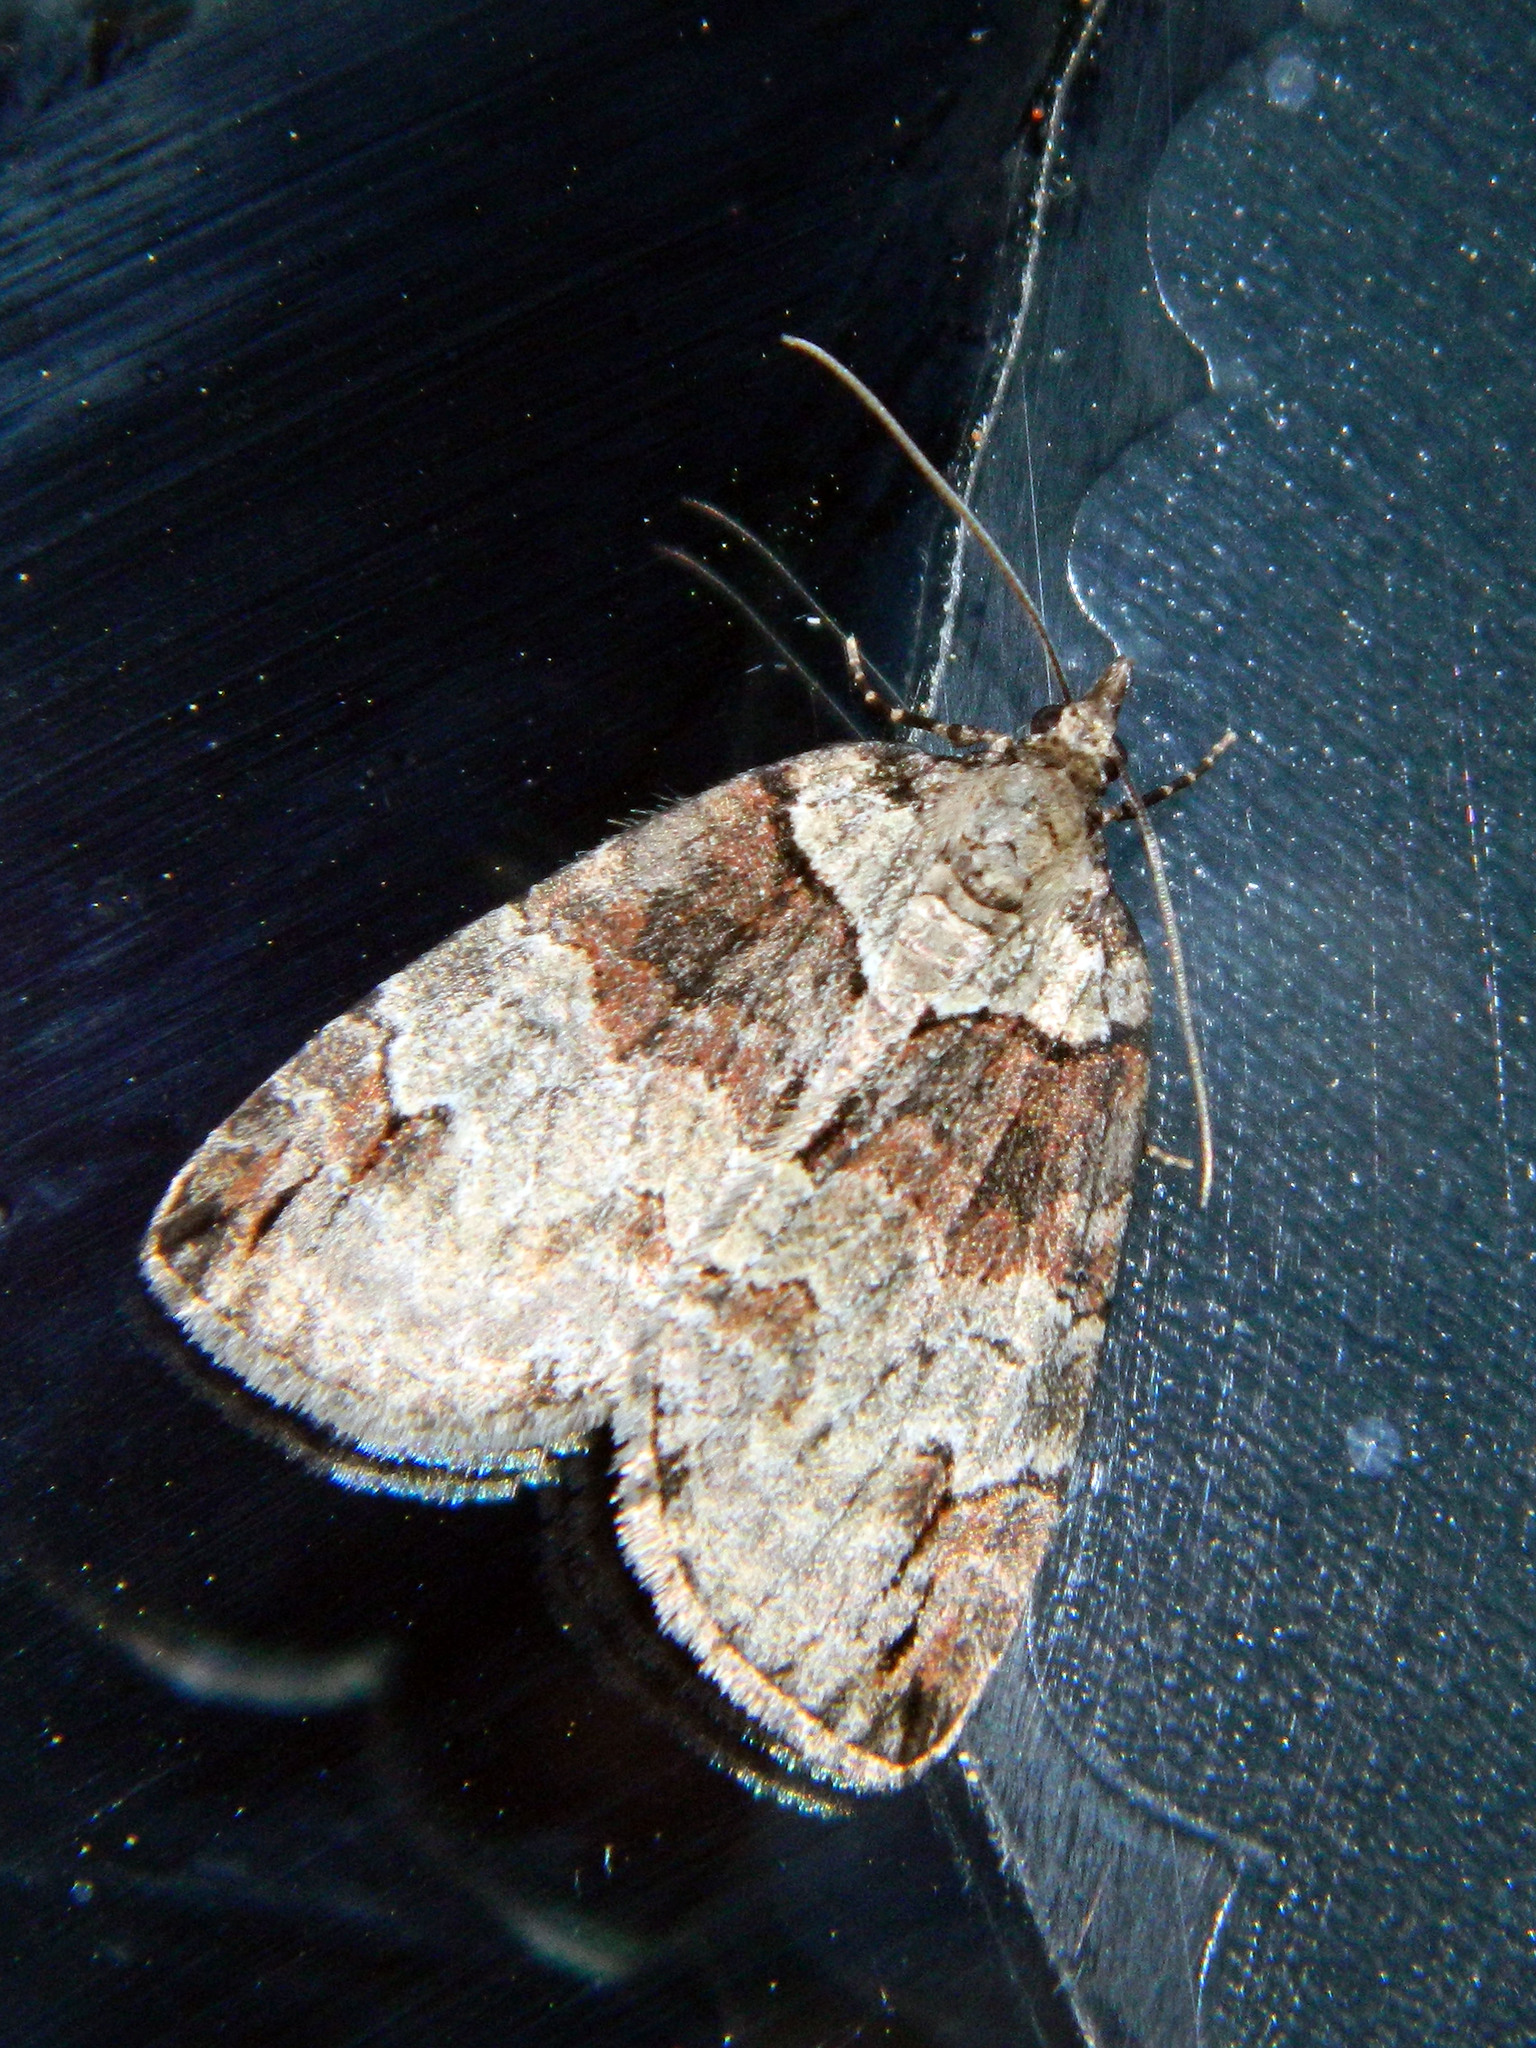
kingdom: Animalia
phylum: Arthropoda
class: Insecta
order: Lepidoptera
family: Geometridae
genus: Hydriomena
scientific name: Hydriomena ruberata
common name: Ruddy highflyer
